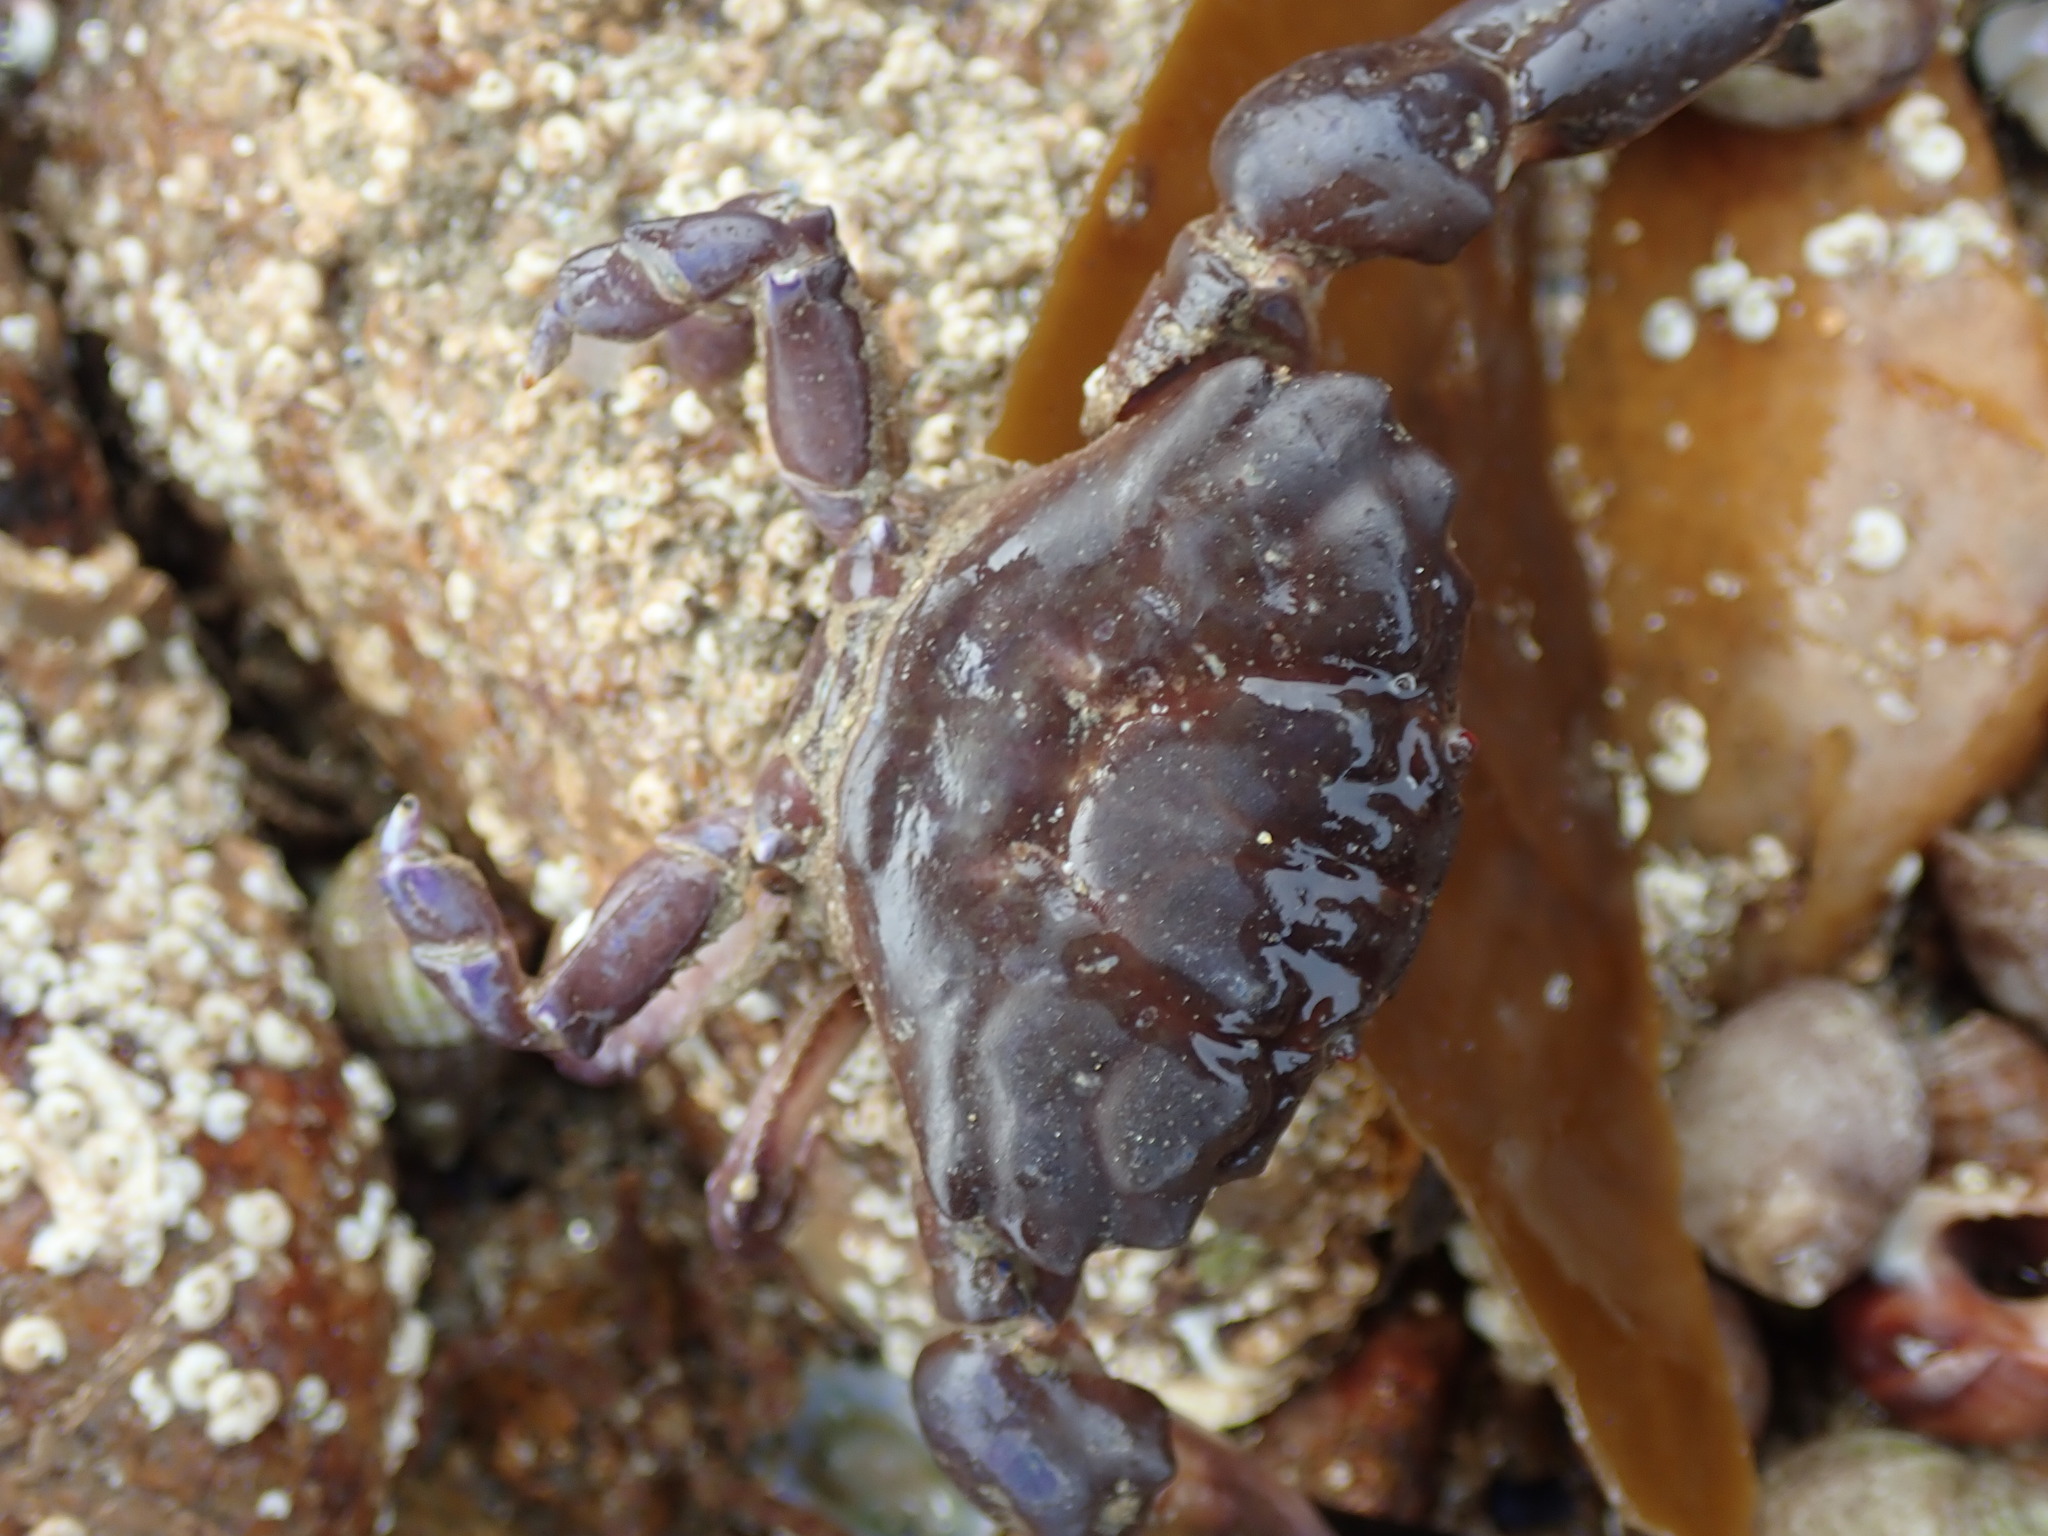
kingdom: Animalia
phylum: Arthropoda
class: Malacostraca
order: Decapoda
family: Xanthidae
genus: Xantho
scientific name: Xantho hydrophilus
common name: Montagu's crab
